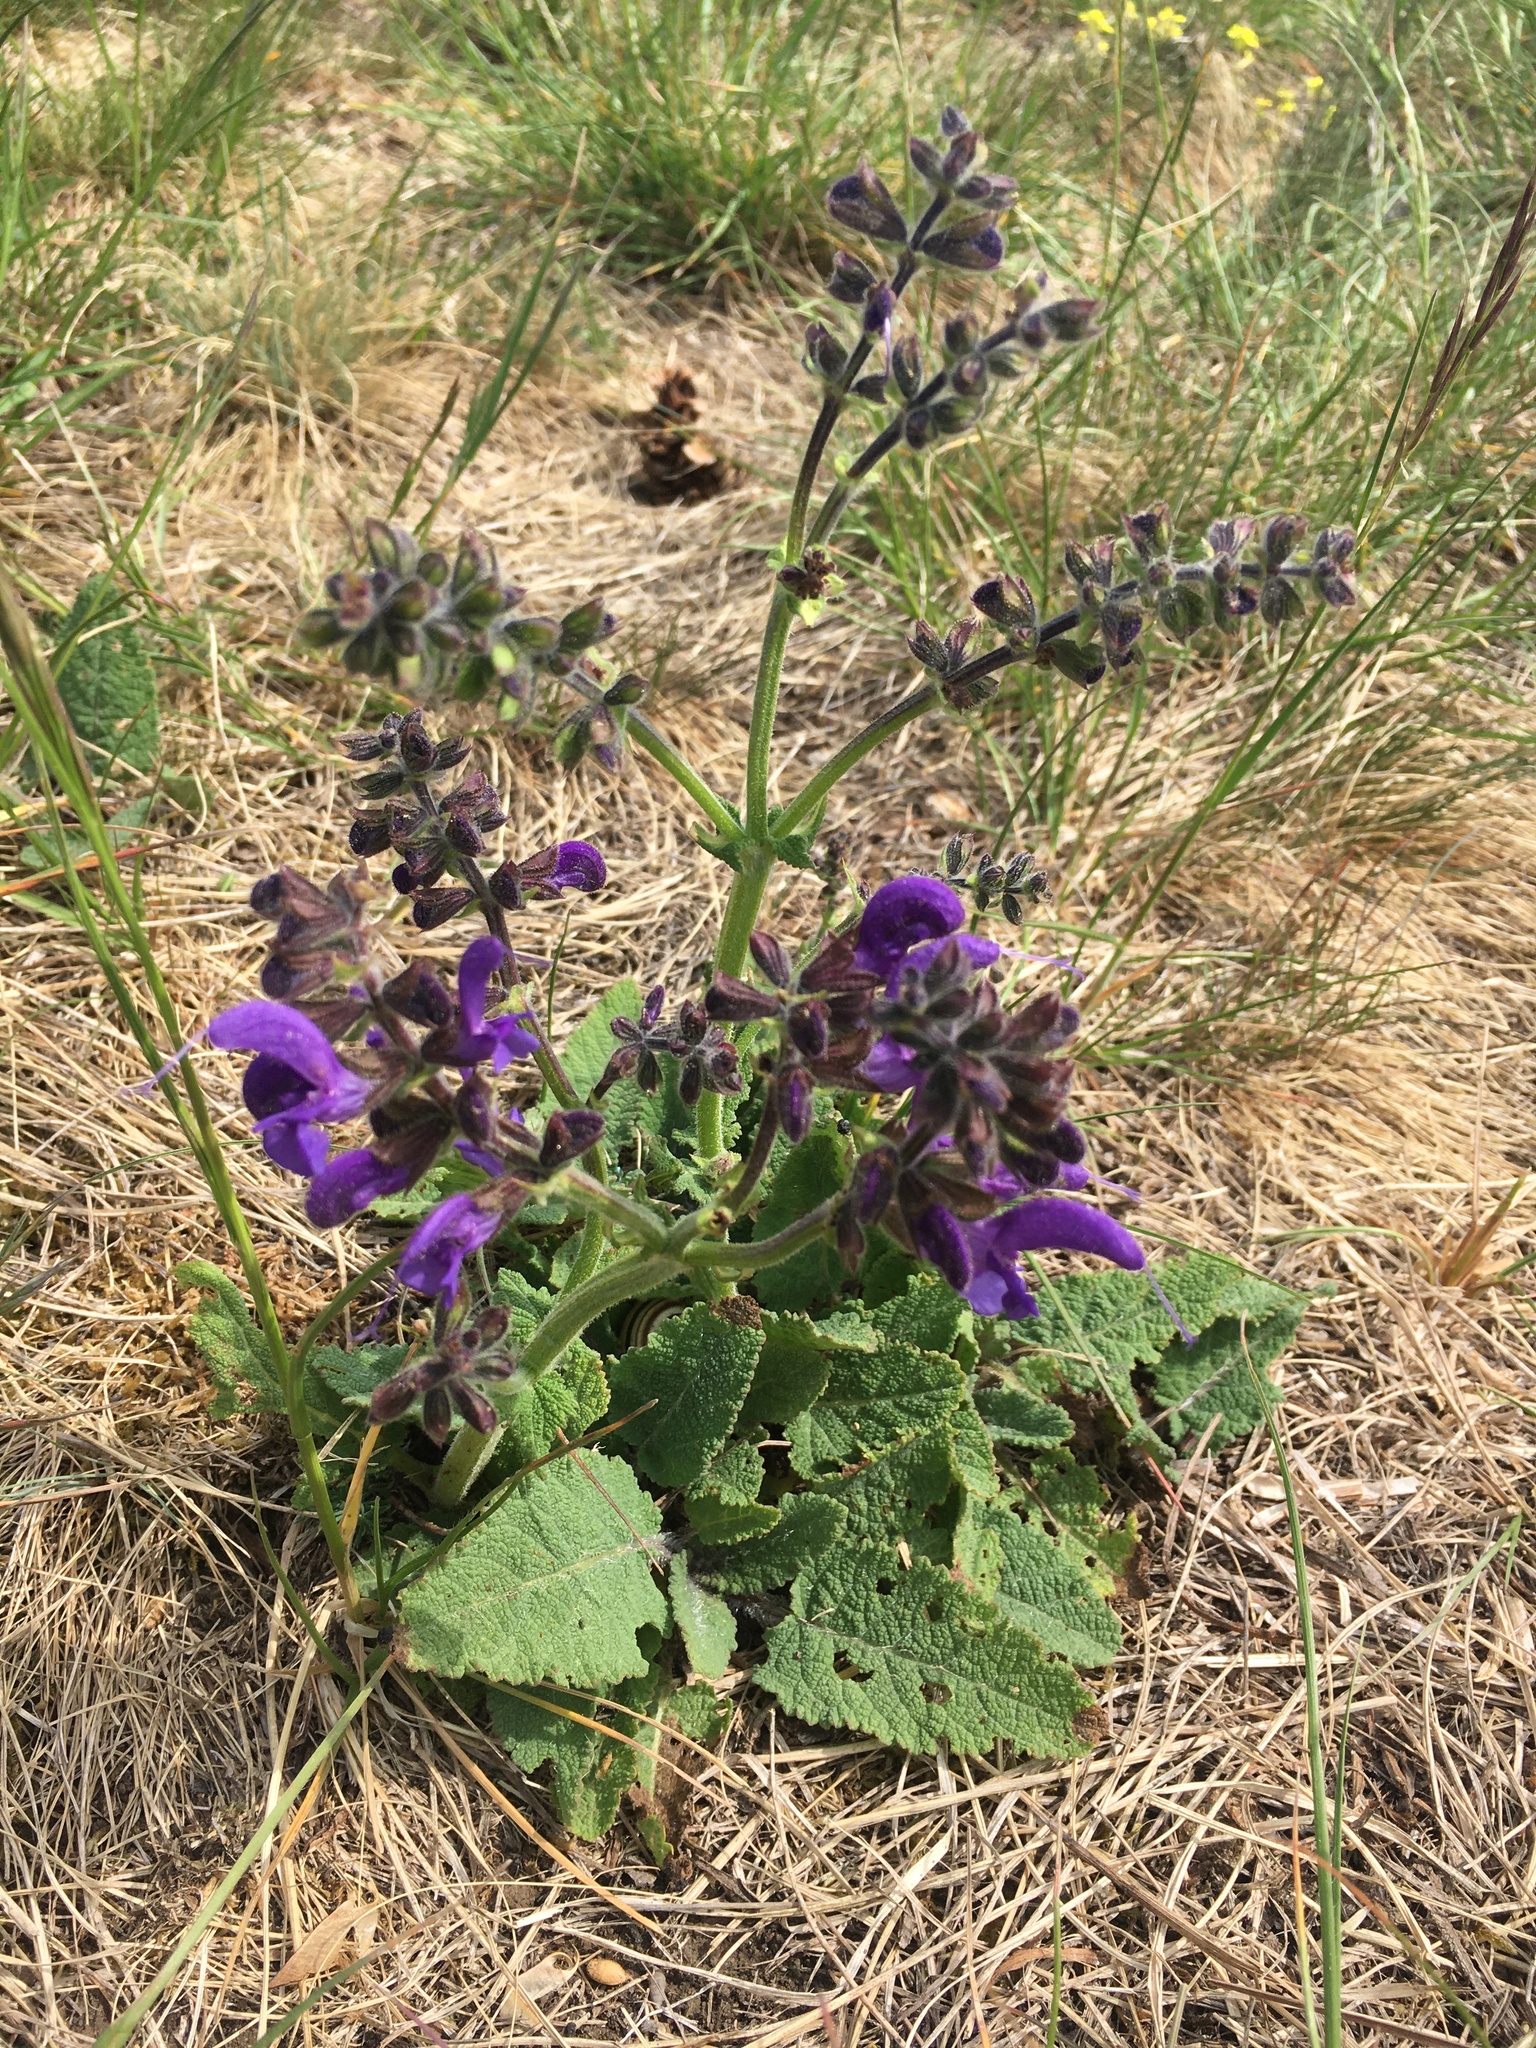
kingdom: Plantae
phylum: Tracheophyta
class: Magnoliopsida
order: Lamiales
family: Lamiaceae
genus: Salvia
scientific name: Salvia pratensis
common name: Meadow sage
